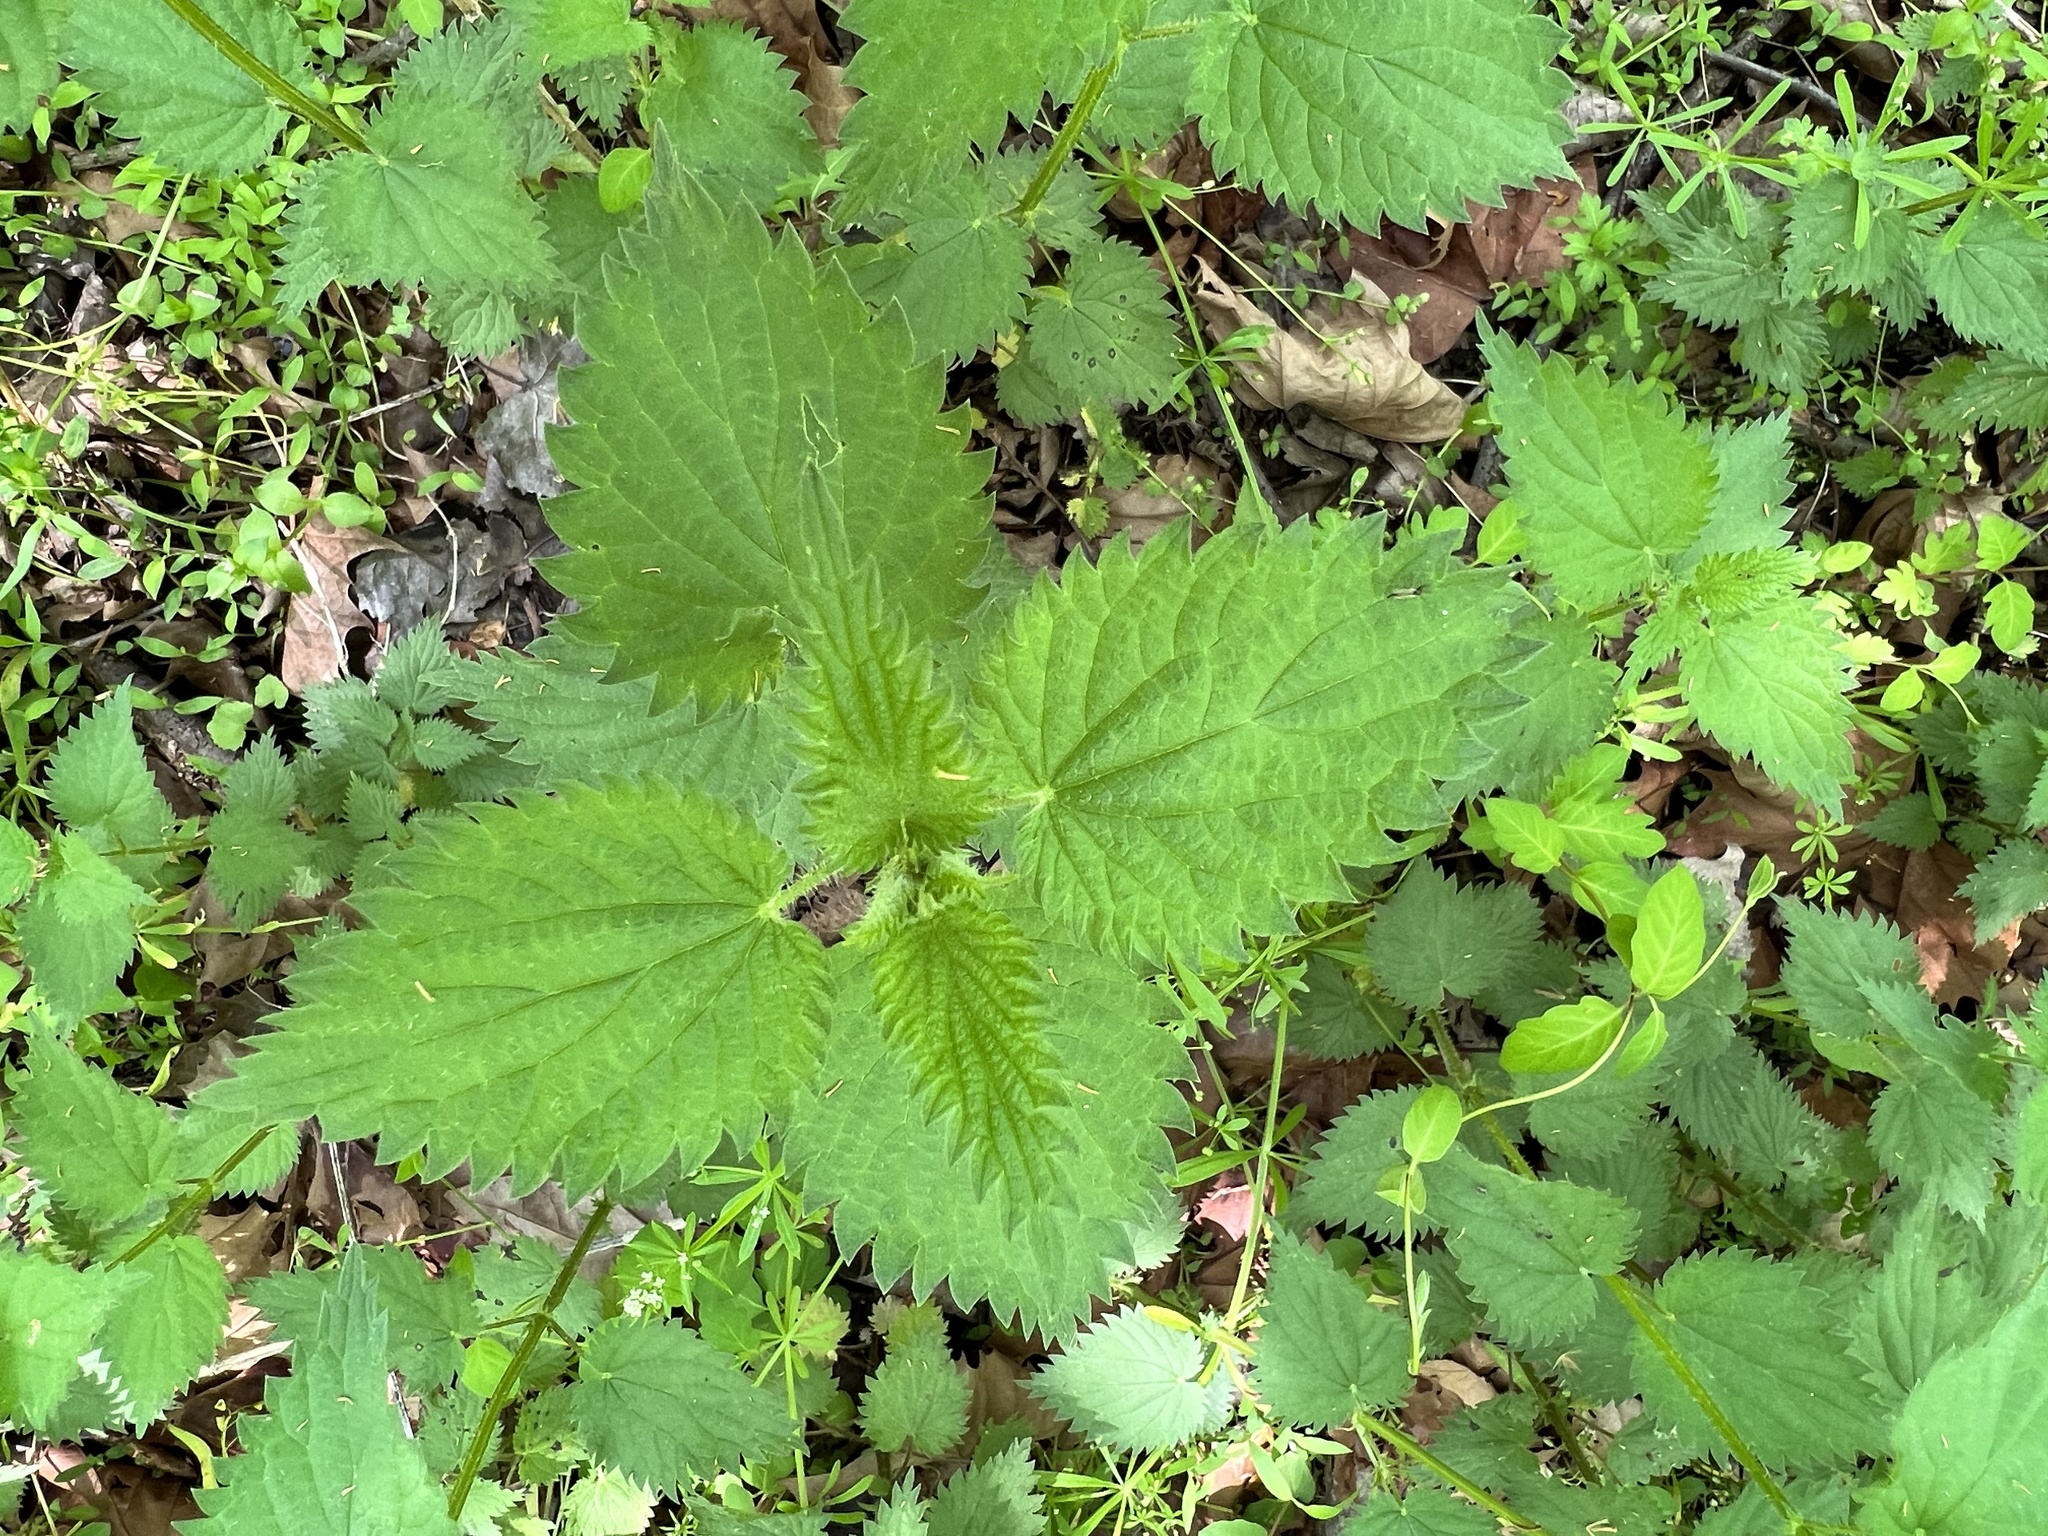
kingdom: Plantae
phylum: Tracheophyta
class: Magnoliopsida
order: Rosales
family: Urticaceae
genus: Urtica
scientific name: Urtica dioica
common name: Common nettle
